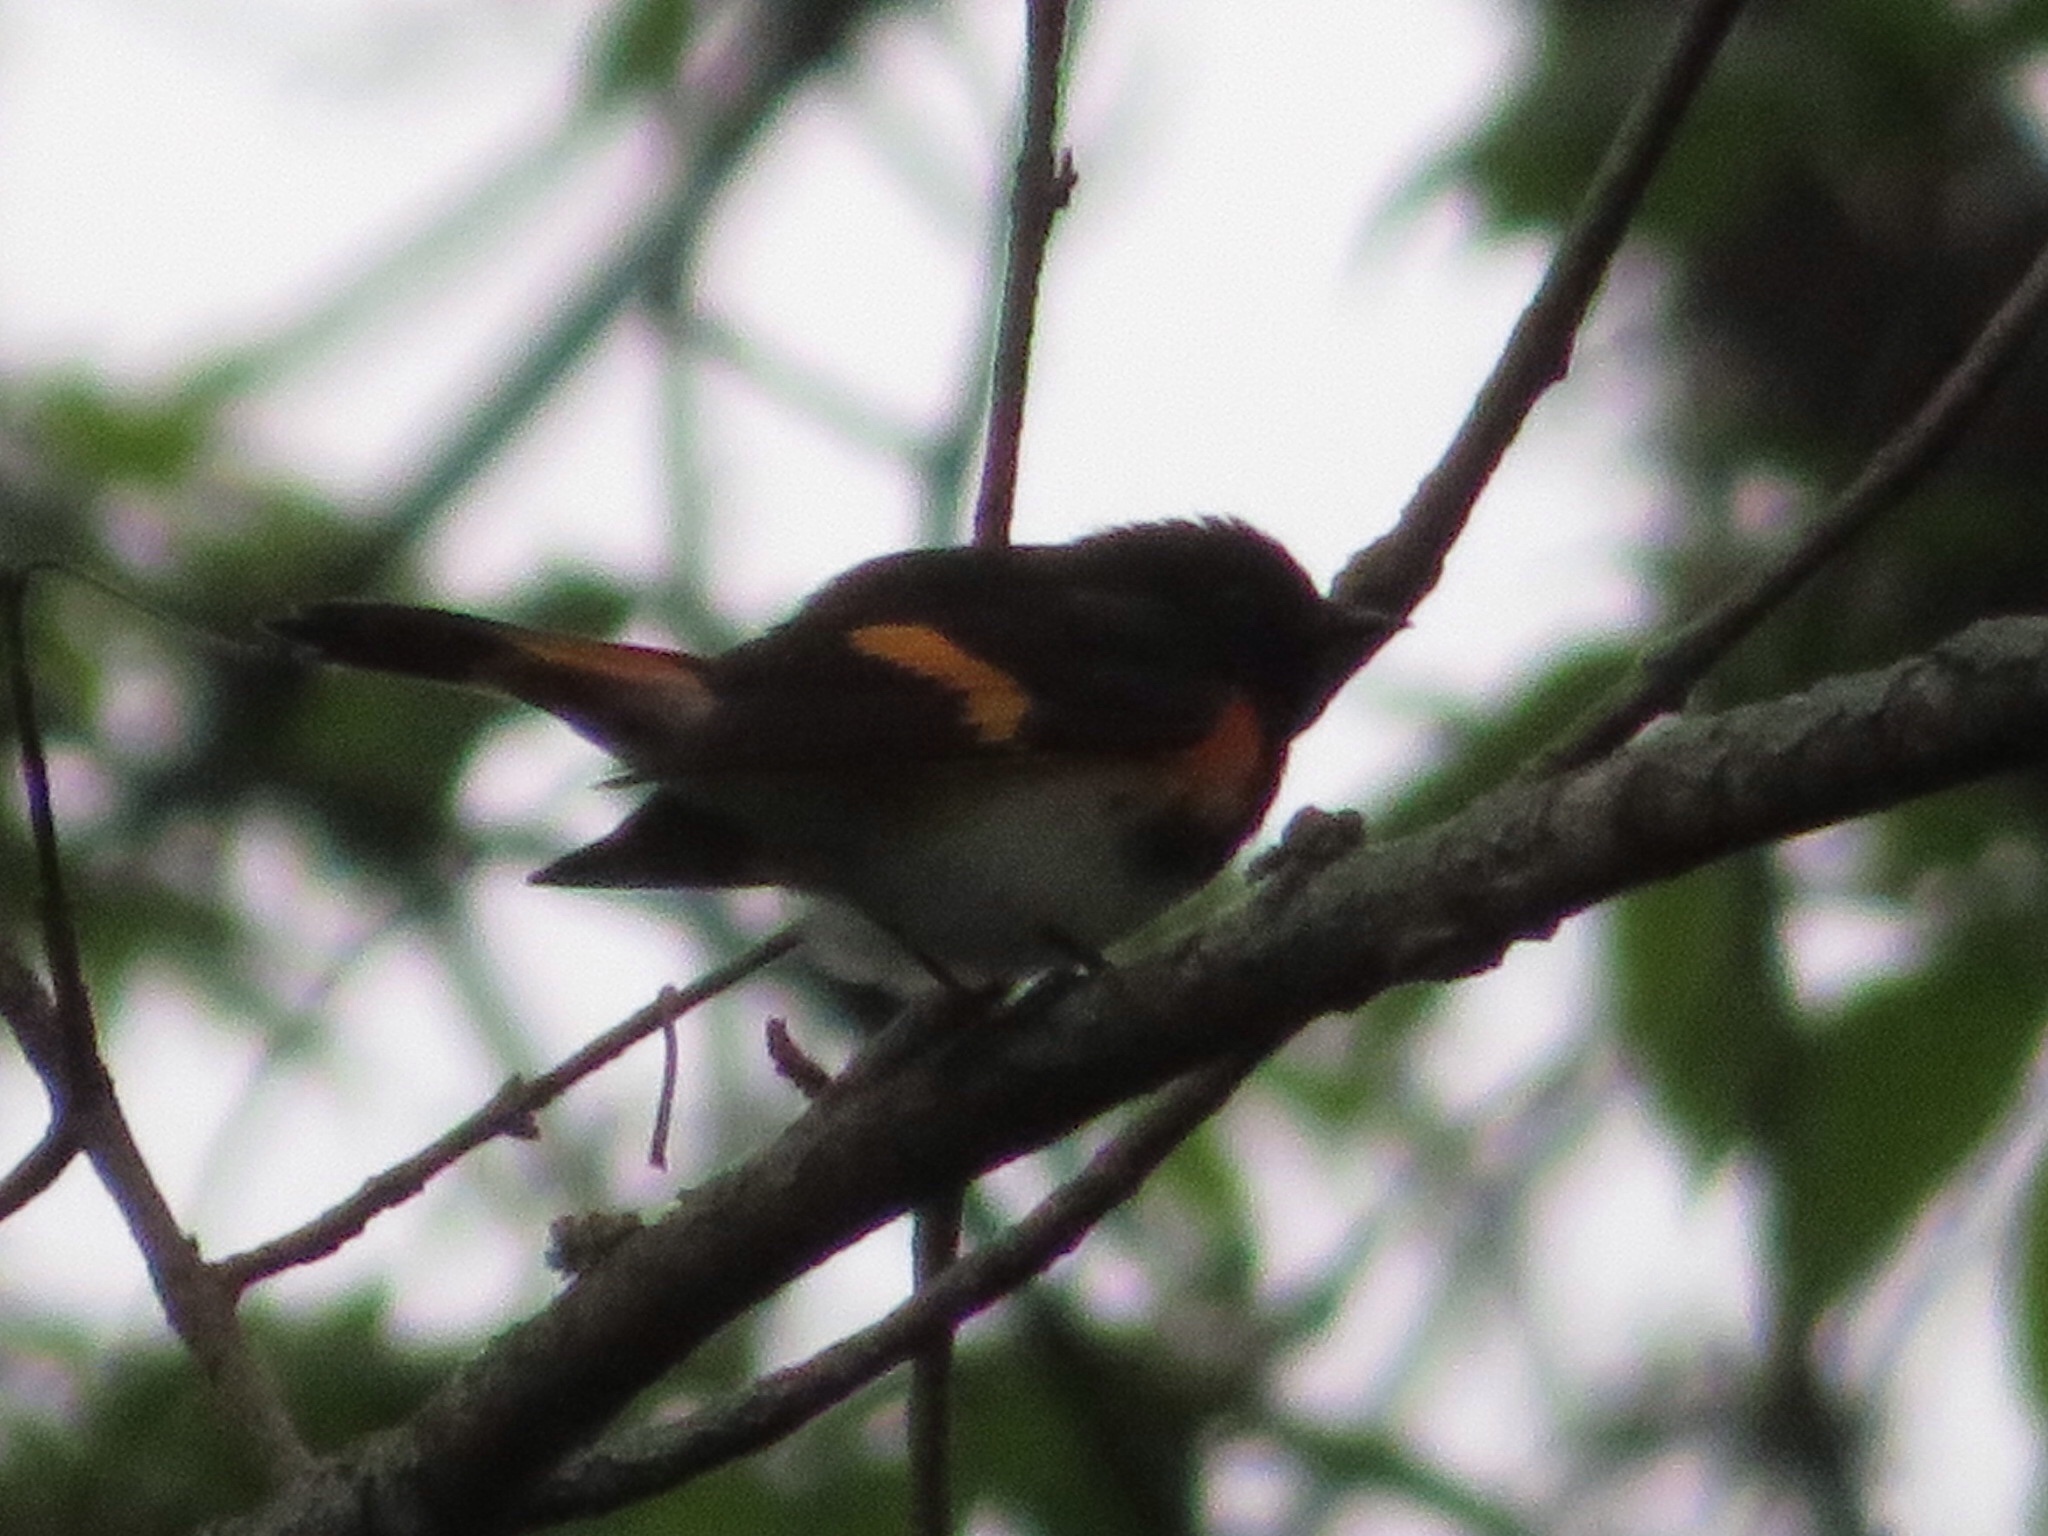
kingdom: Animalia
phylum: Chordata
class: Aves
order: Passeriformes
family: Parulidae
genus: Setophaga
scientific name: Setophaga ruticilla
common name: American redstart
